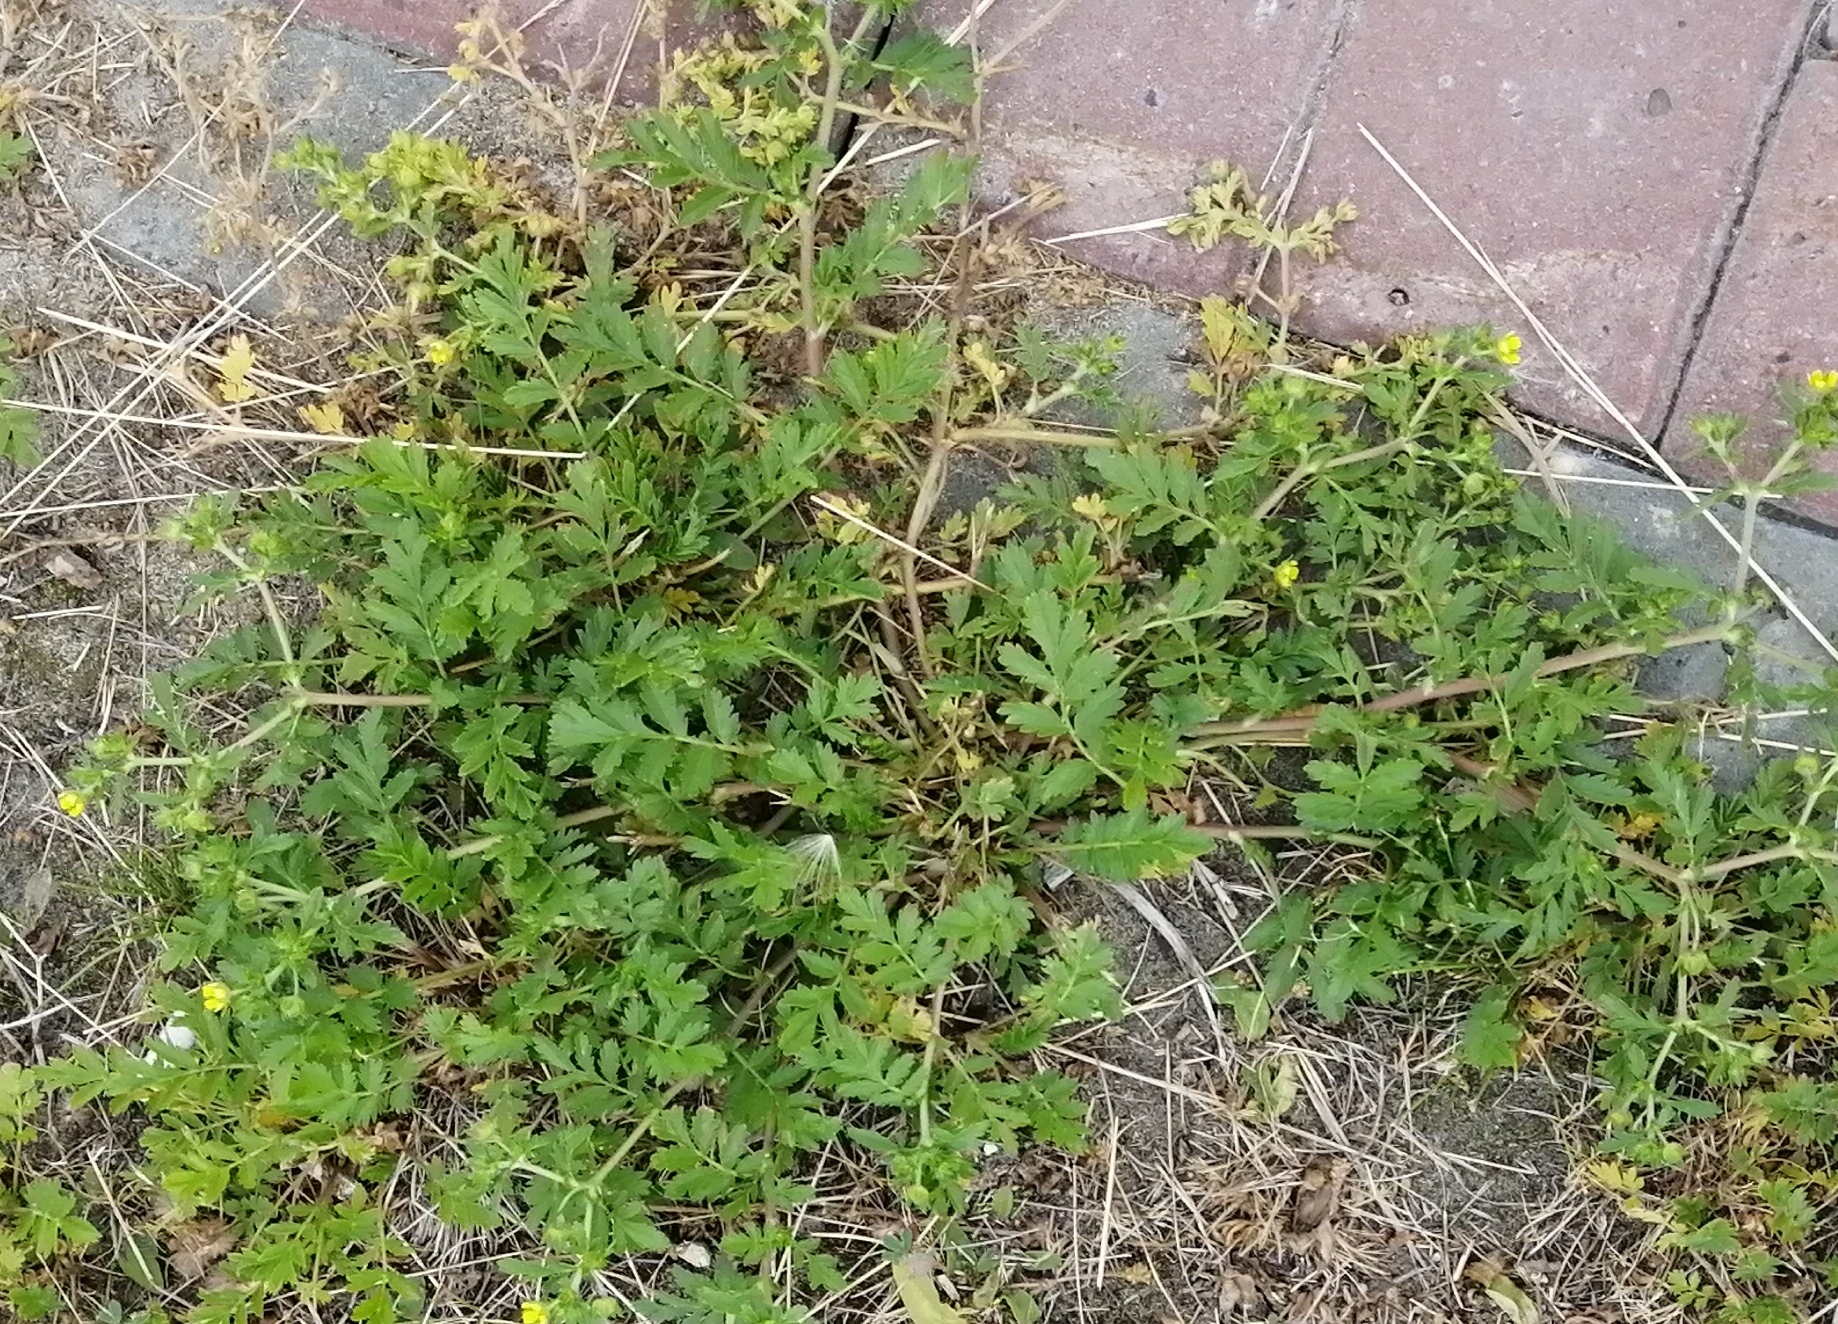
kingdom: Plantae
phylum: Tracheophyta
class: Magnoliopsida
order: Rosales
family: Rosaceae
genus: Potentilla
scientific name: Potentilla supina
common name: Prostrate cinquefoil
